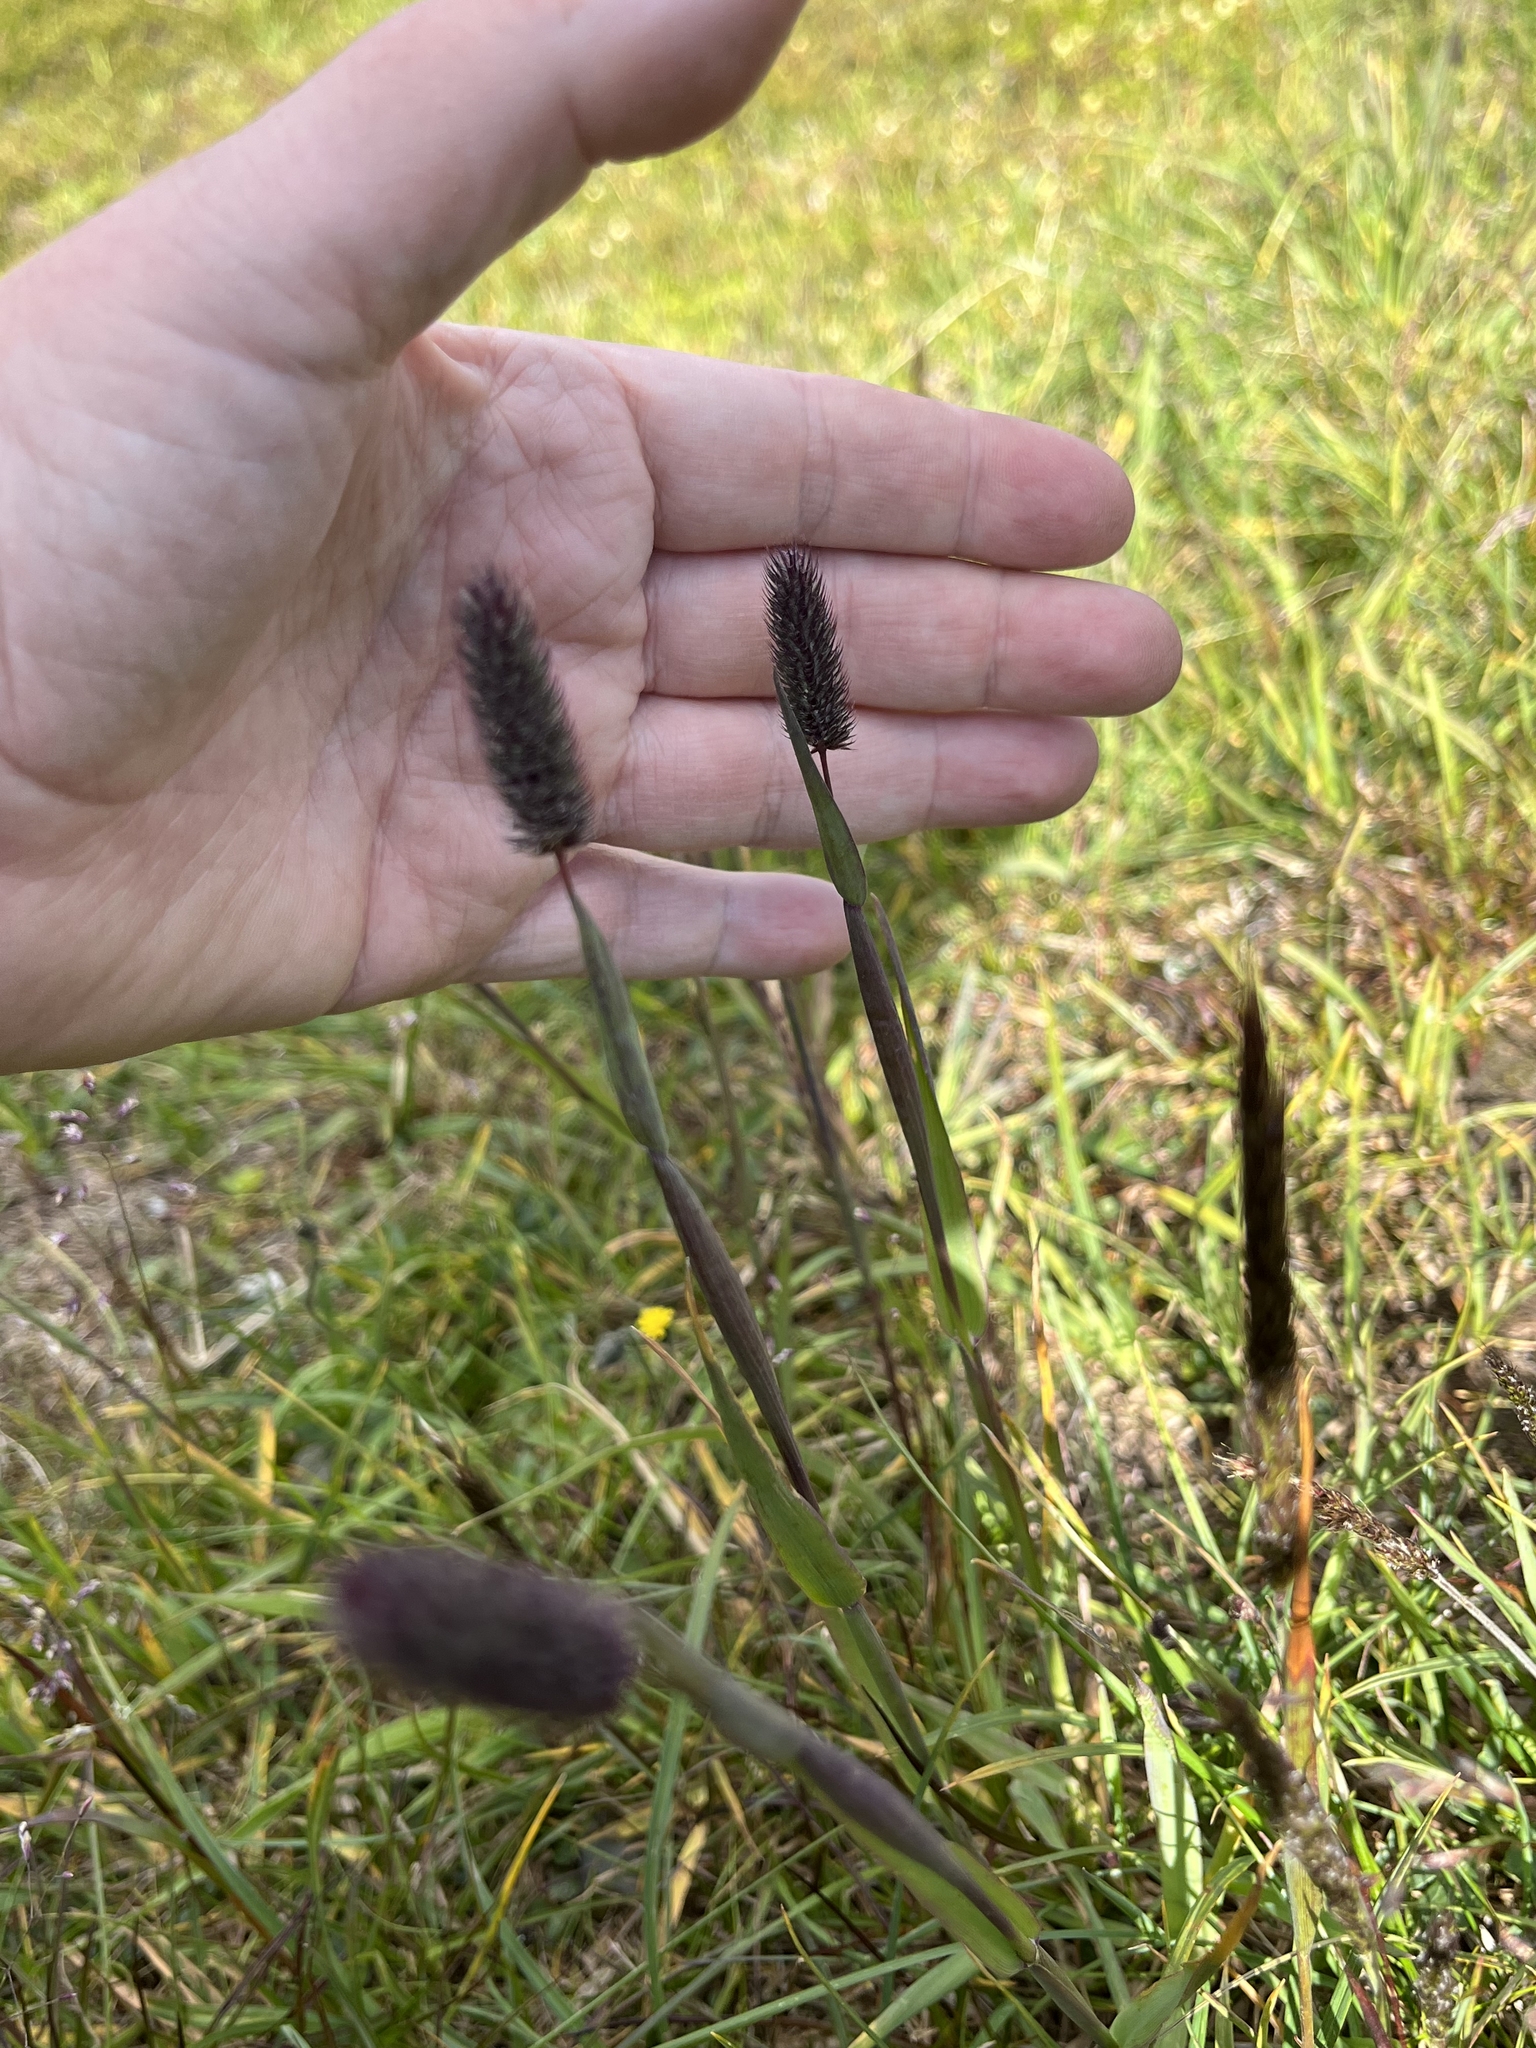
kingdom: Plantae
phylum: Tracheophyta
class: Liliopsida
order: Poales
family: Poaceae
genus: Phleum
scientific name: Phleum alpinum
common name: Alpine cat's-tail
